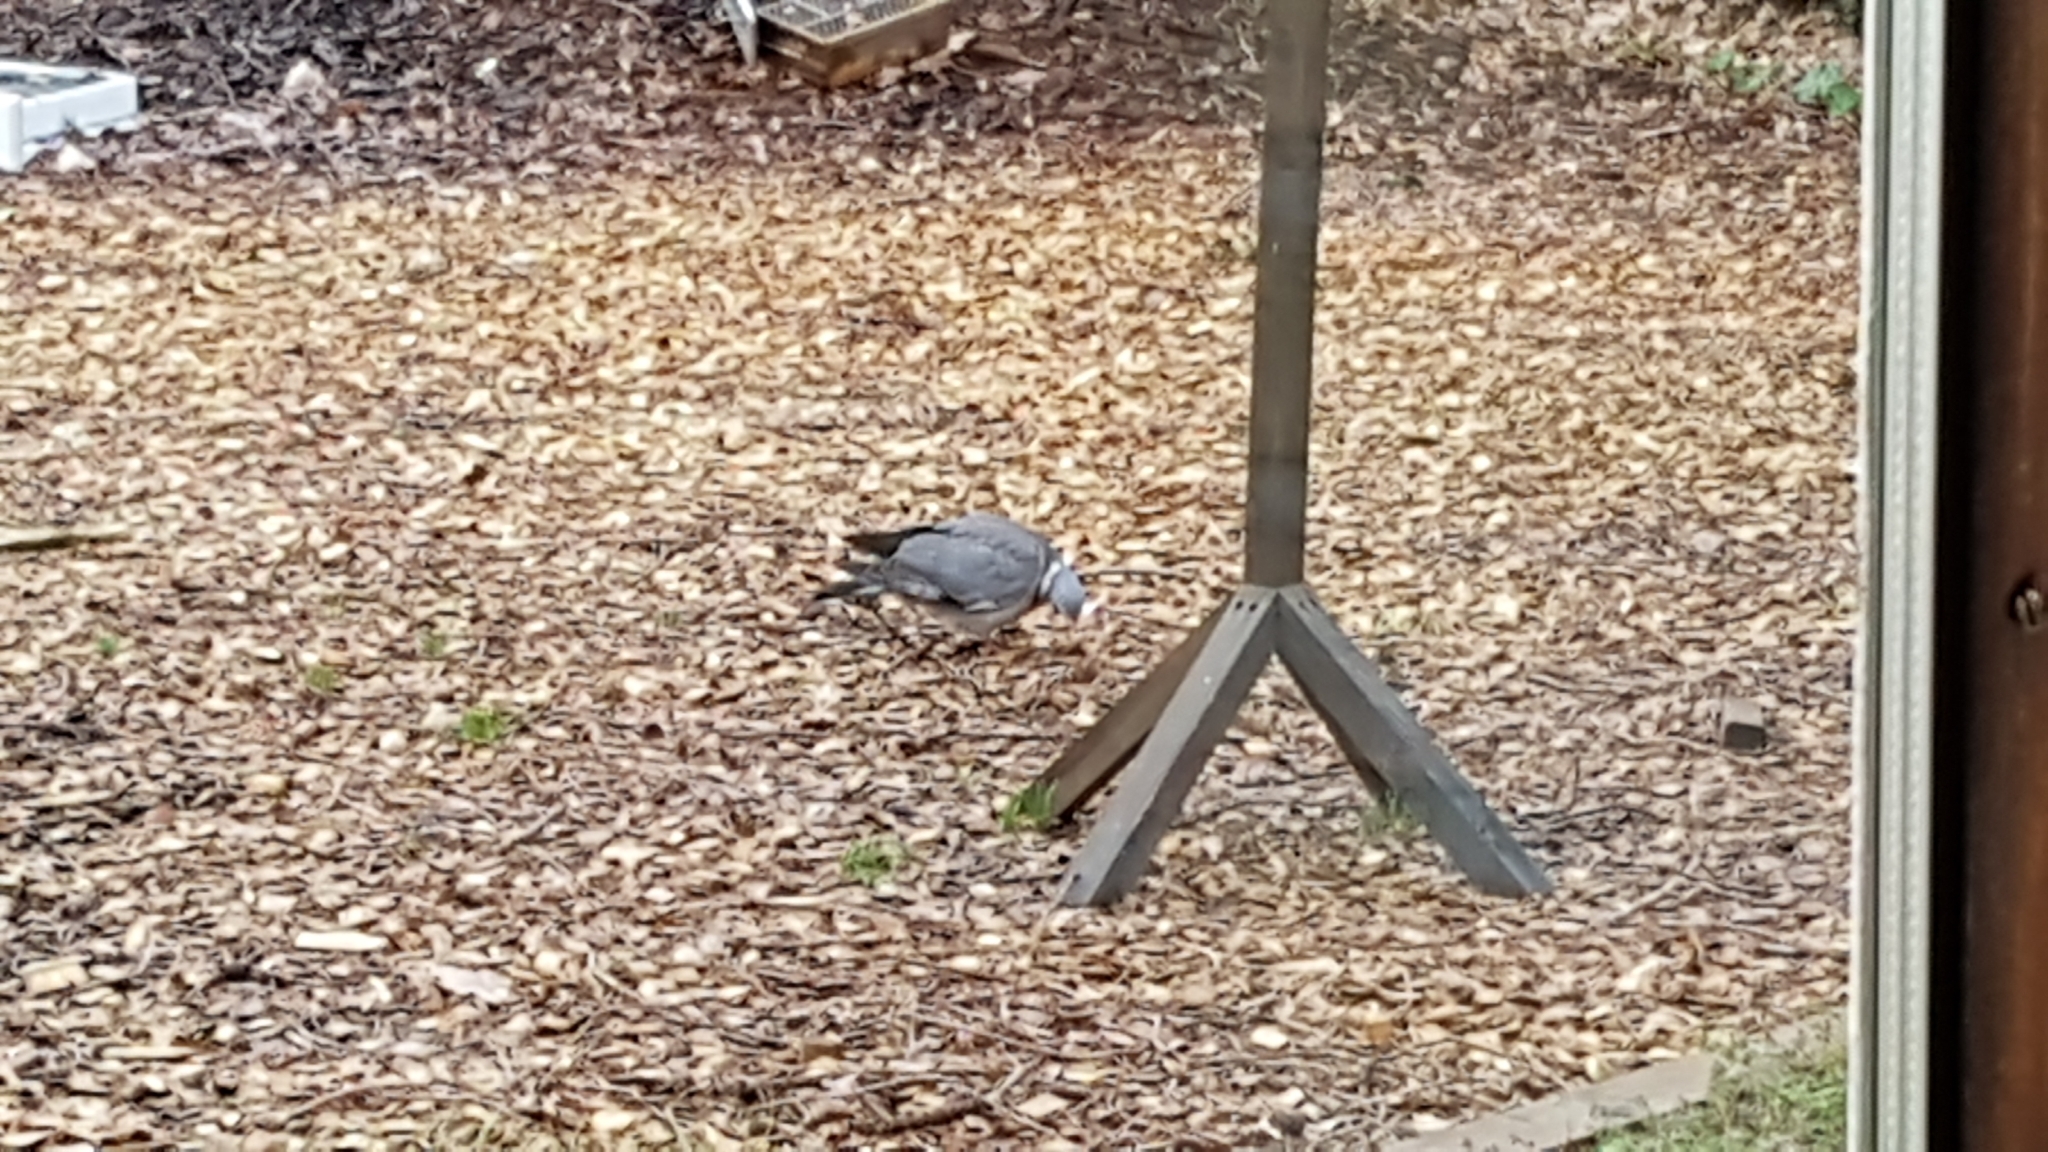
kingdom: Animalia
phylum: Chordata
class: Aves
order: Columbiformes
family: Columbidae
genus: Columba
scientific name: Columba palumbus
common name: Common wood pigeon
